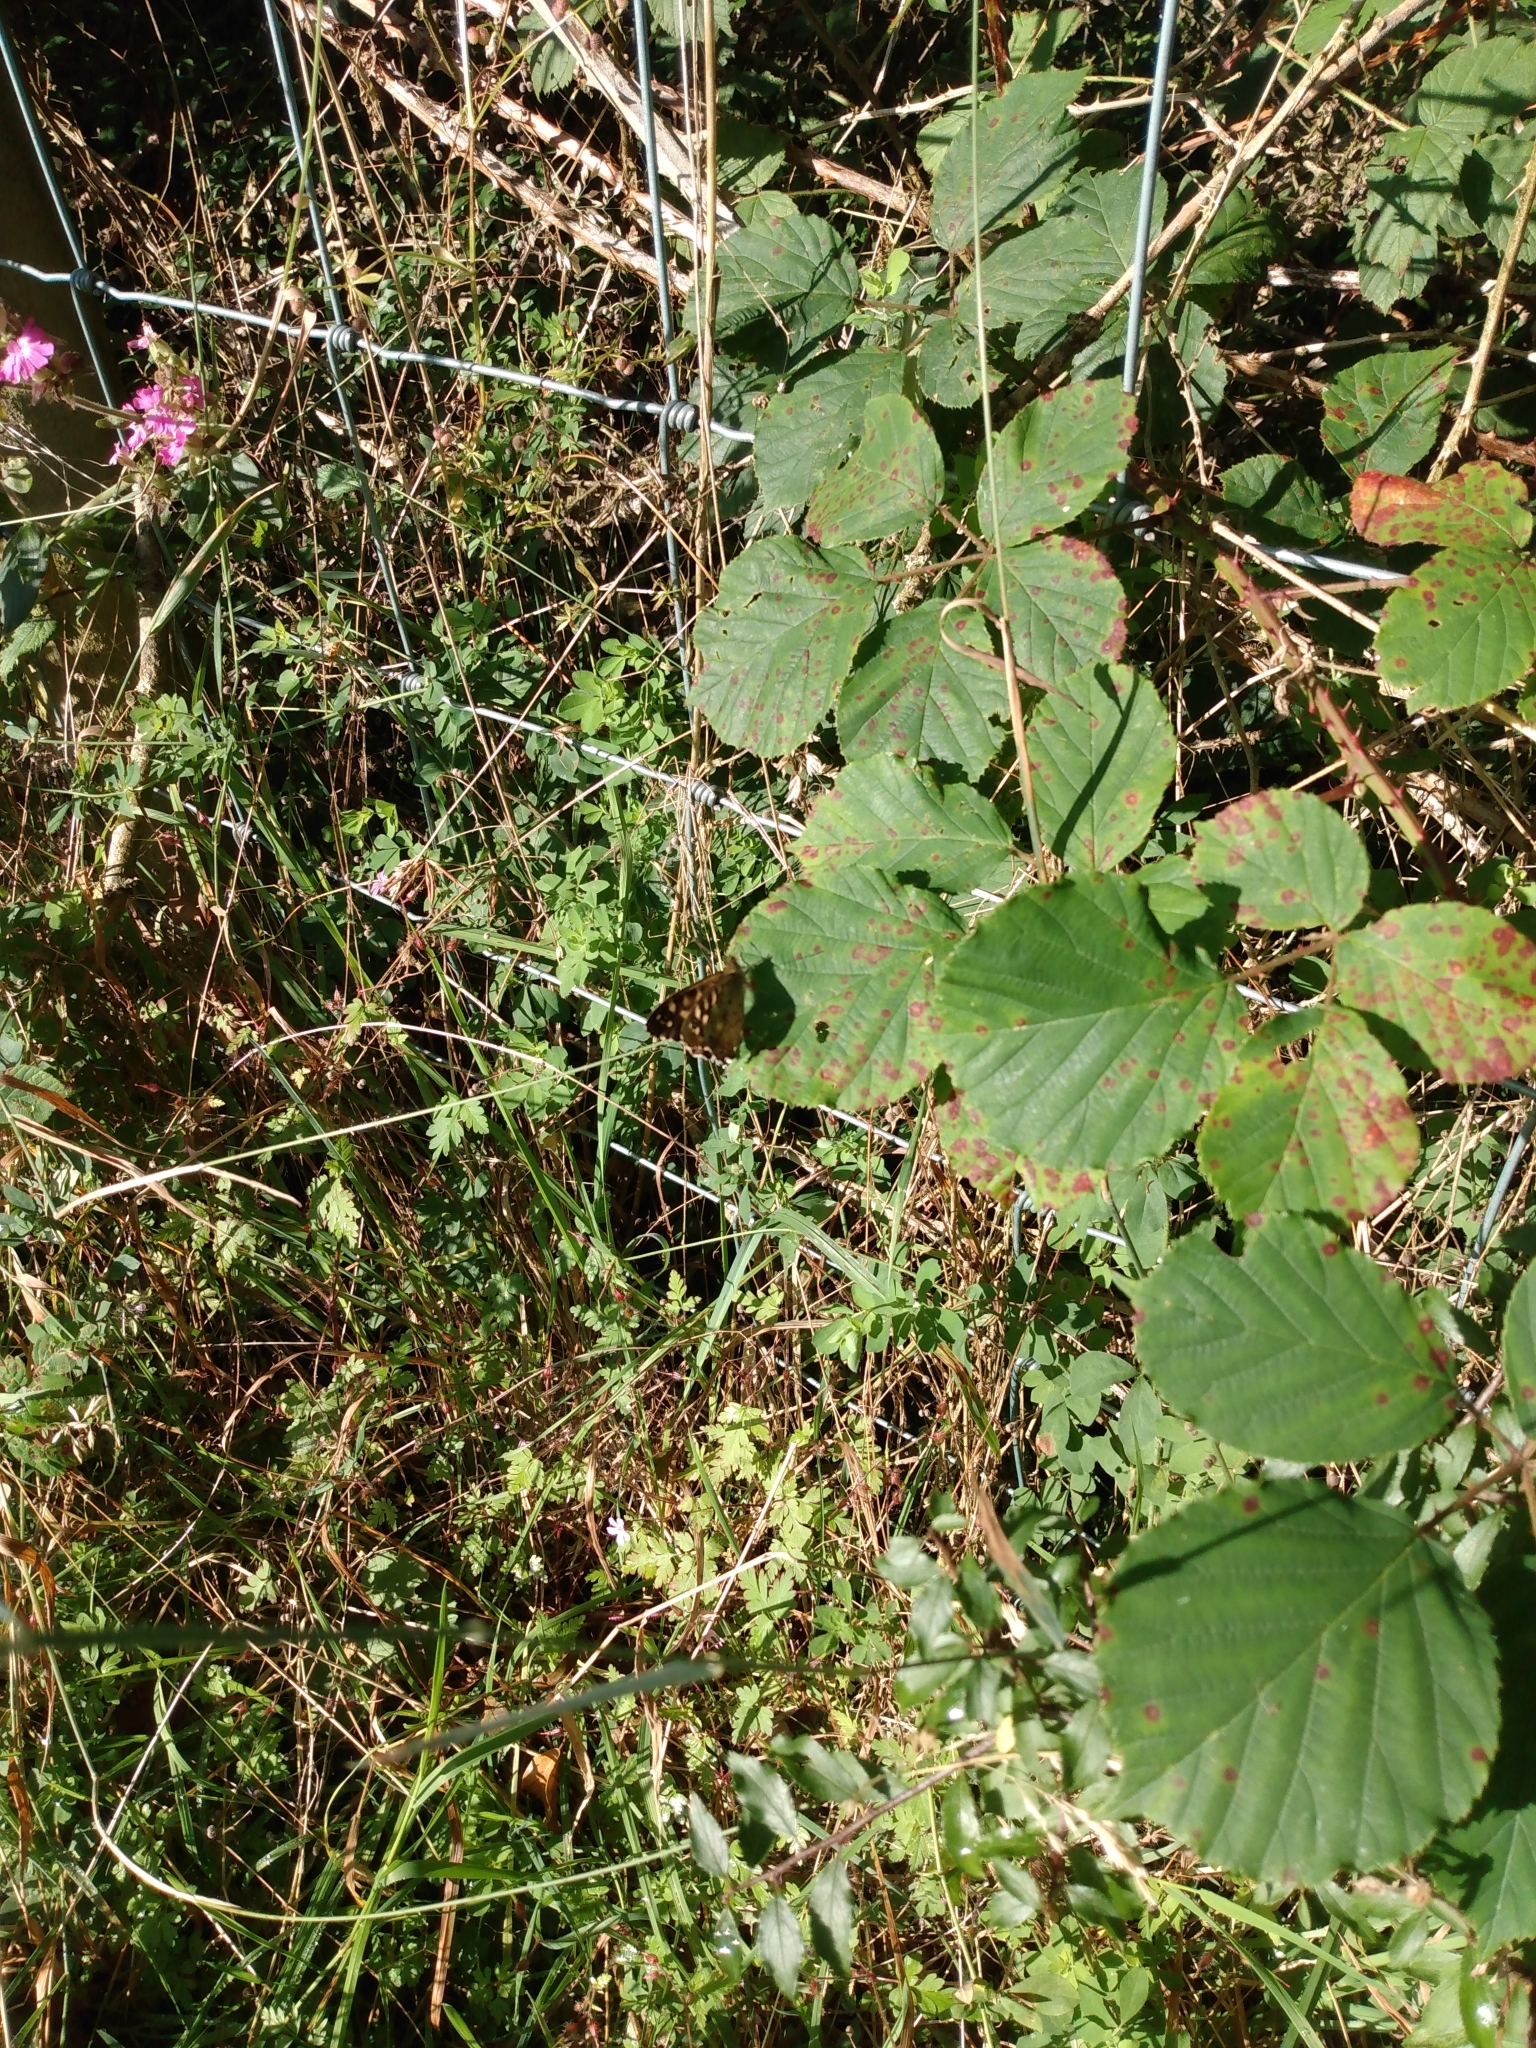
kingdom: Animalia
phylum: Arthropoda
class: Insecta
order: Lepidoptera
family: Nymphalidae
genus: Pararge
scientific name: Pararge aegeria
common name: Speckled wood
